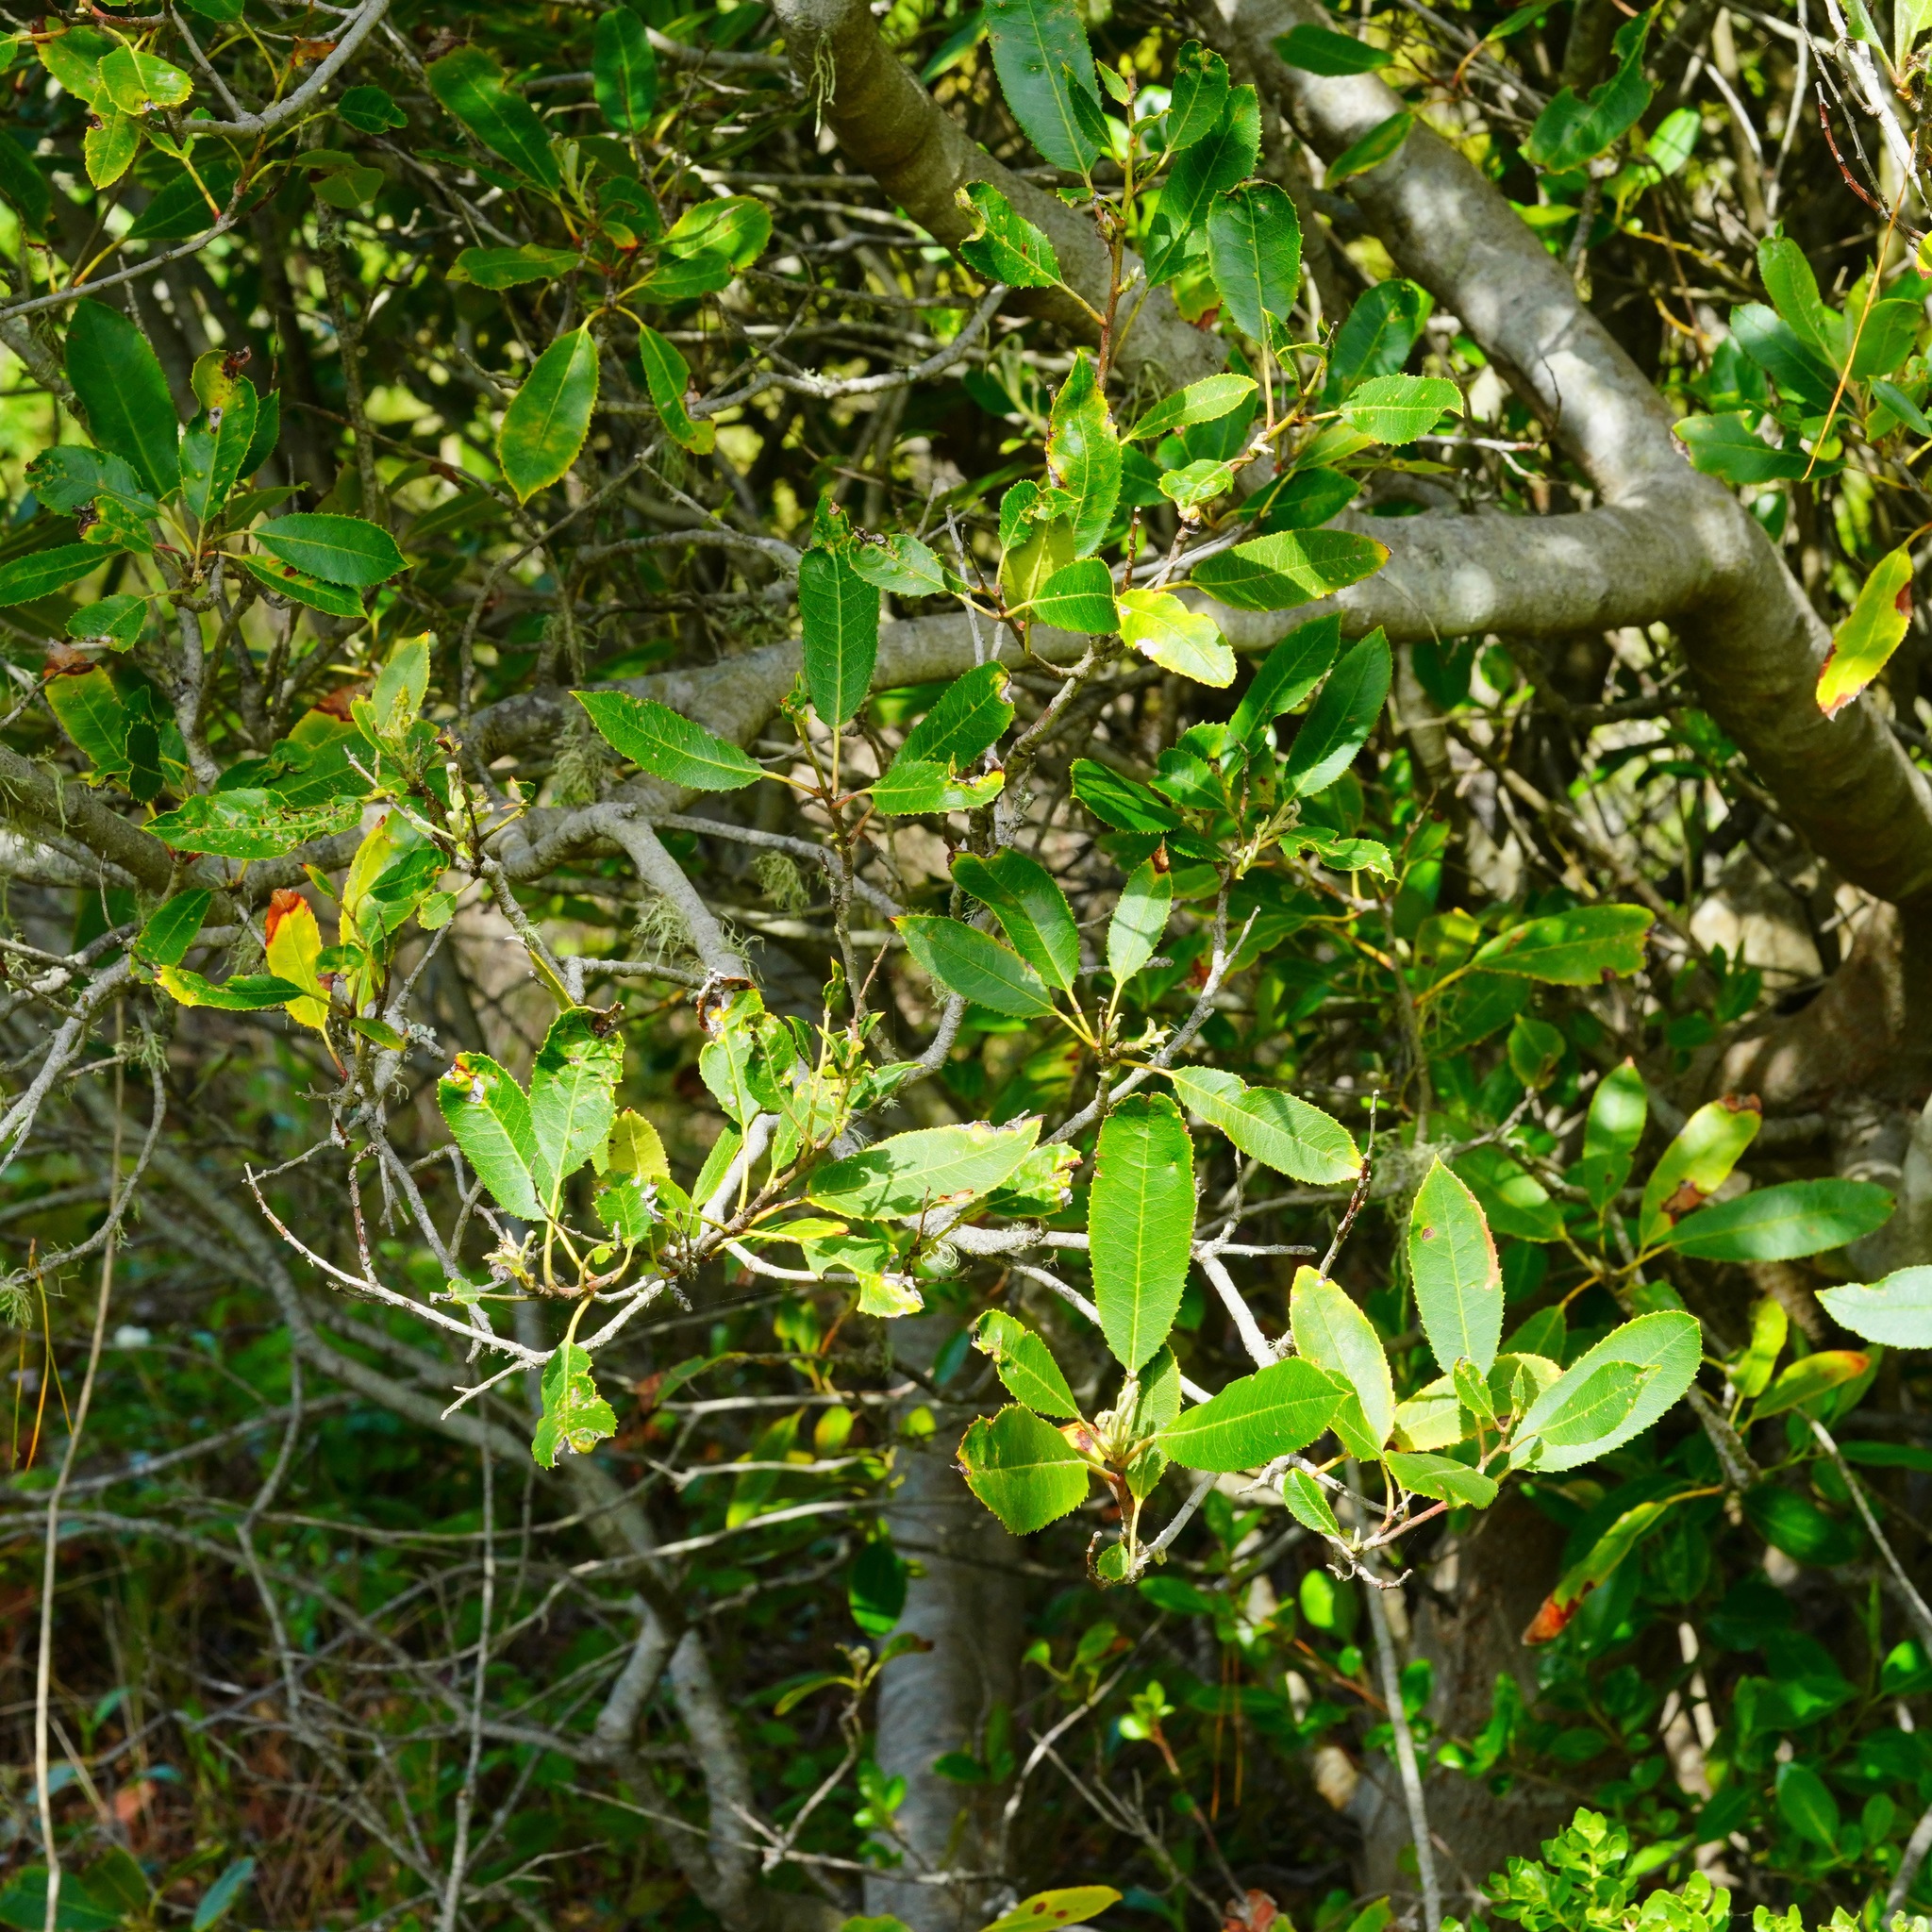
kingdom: Plantae
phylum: Tracheophyta
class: Magnoliopsida
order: Rosales
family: Rosaceae
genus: Heteromeles
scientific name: Heteromeles arbutifolia
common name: California-holly
